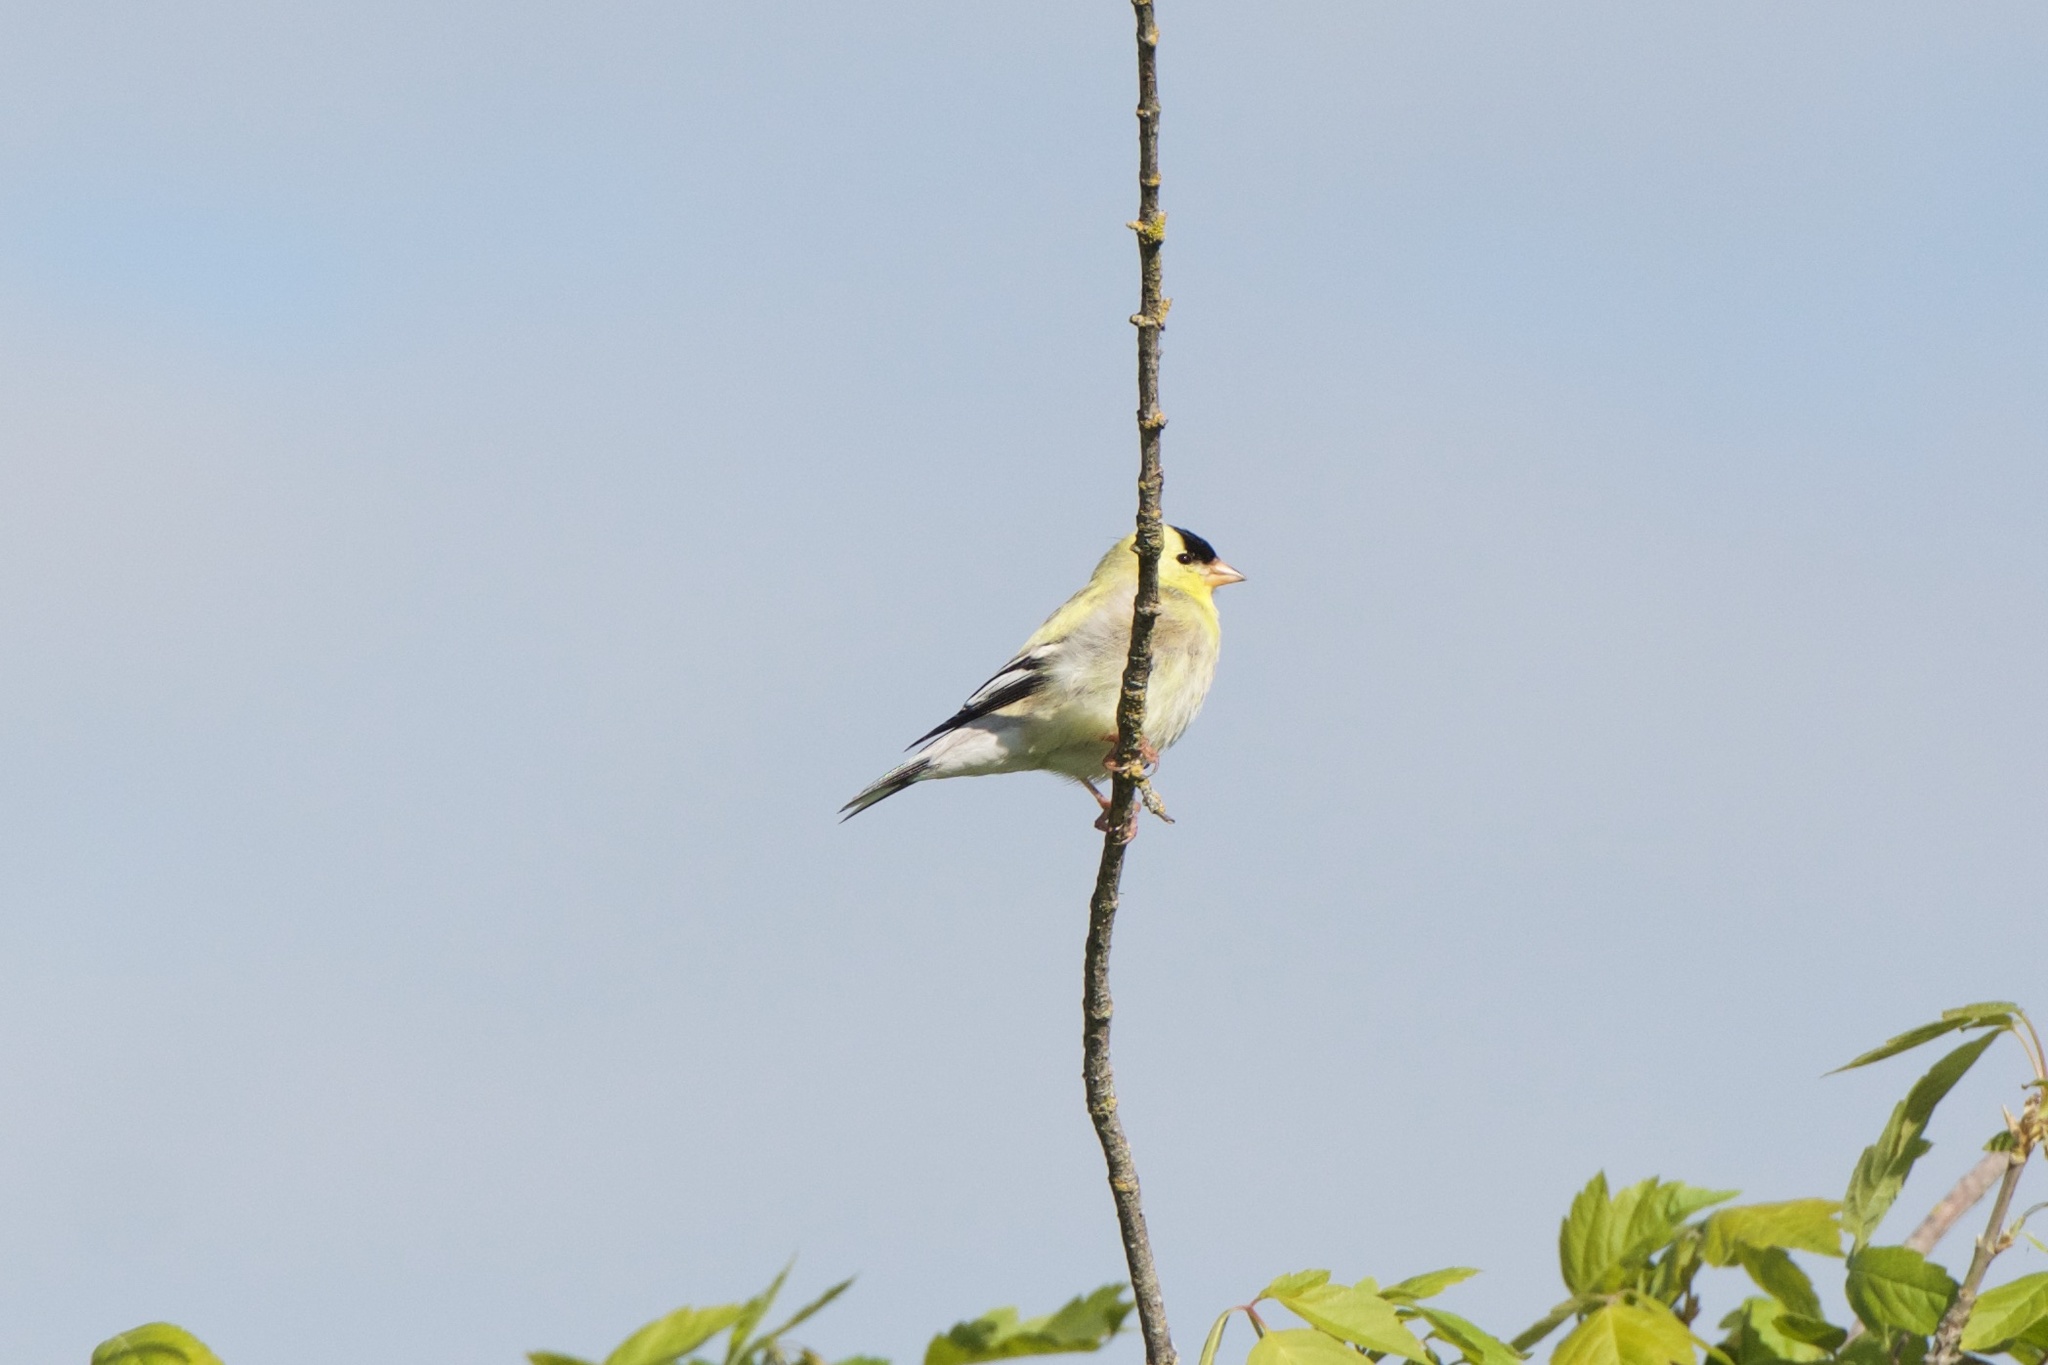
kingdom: Animalia
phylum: Chordata
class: Aves
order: Passeriformes
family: Fringillidae
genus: Spinus
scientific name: Spinus tristis
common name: American goldfinch
